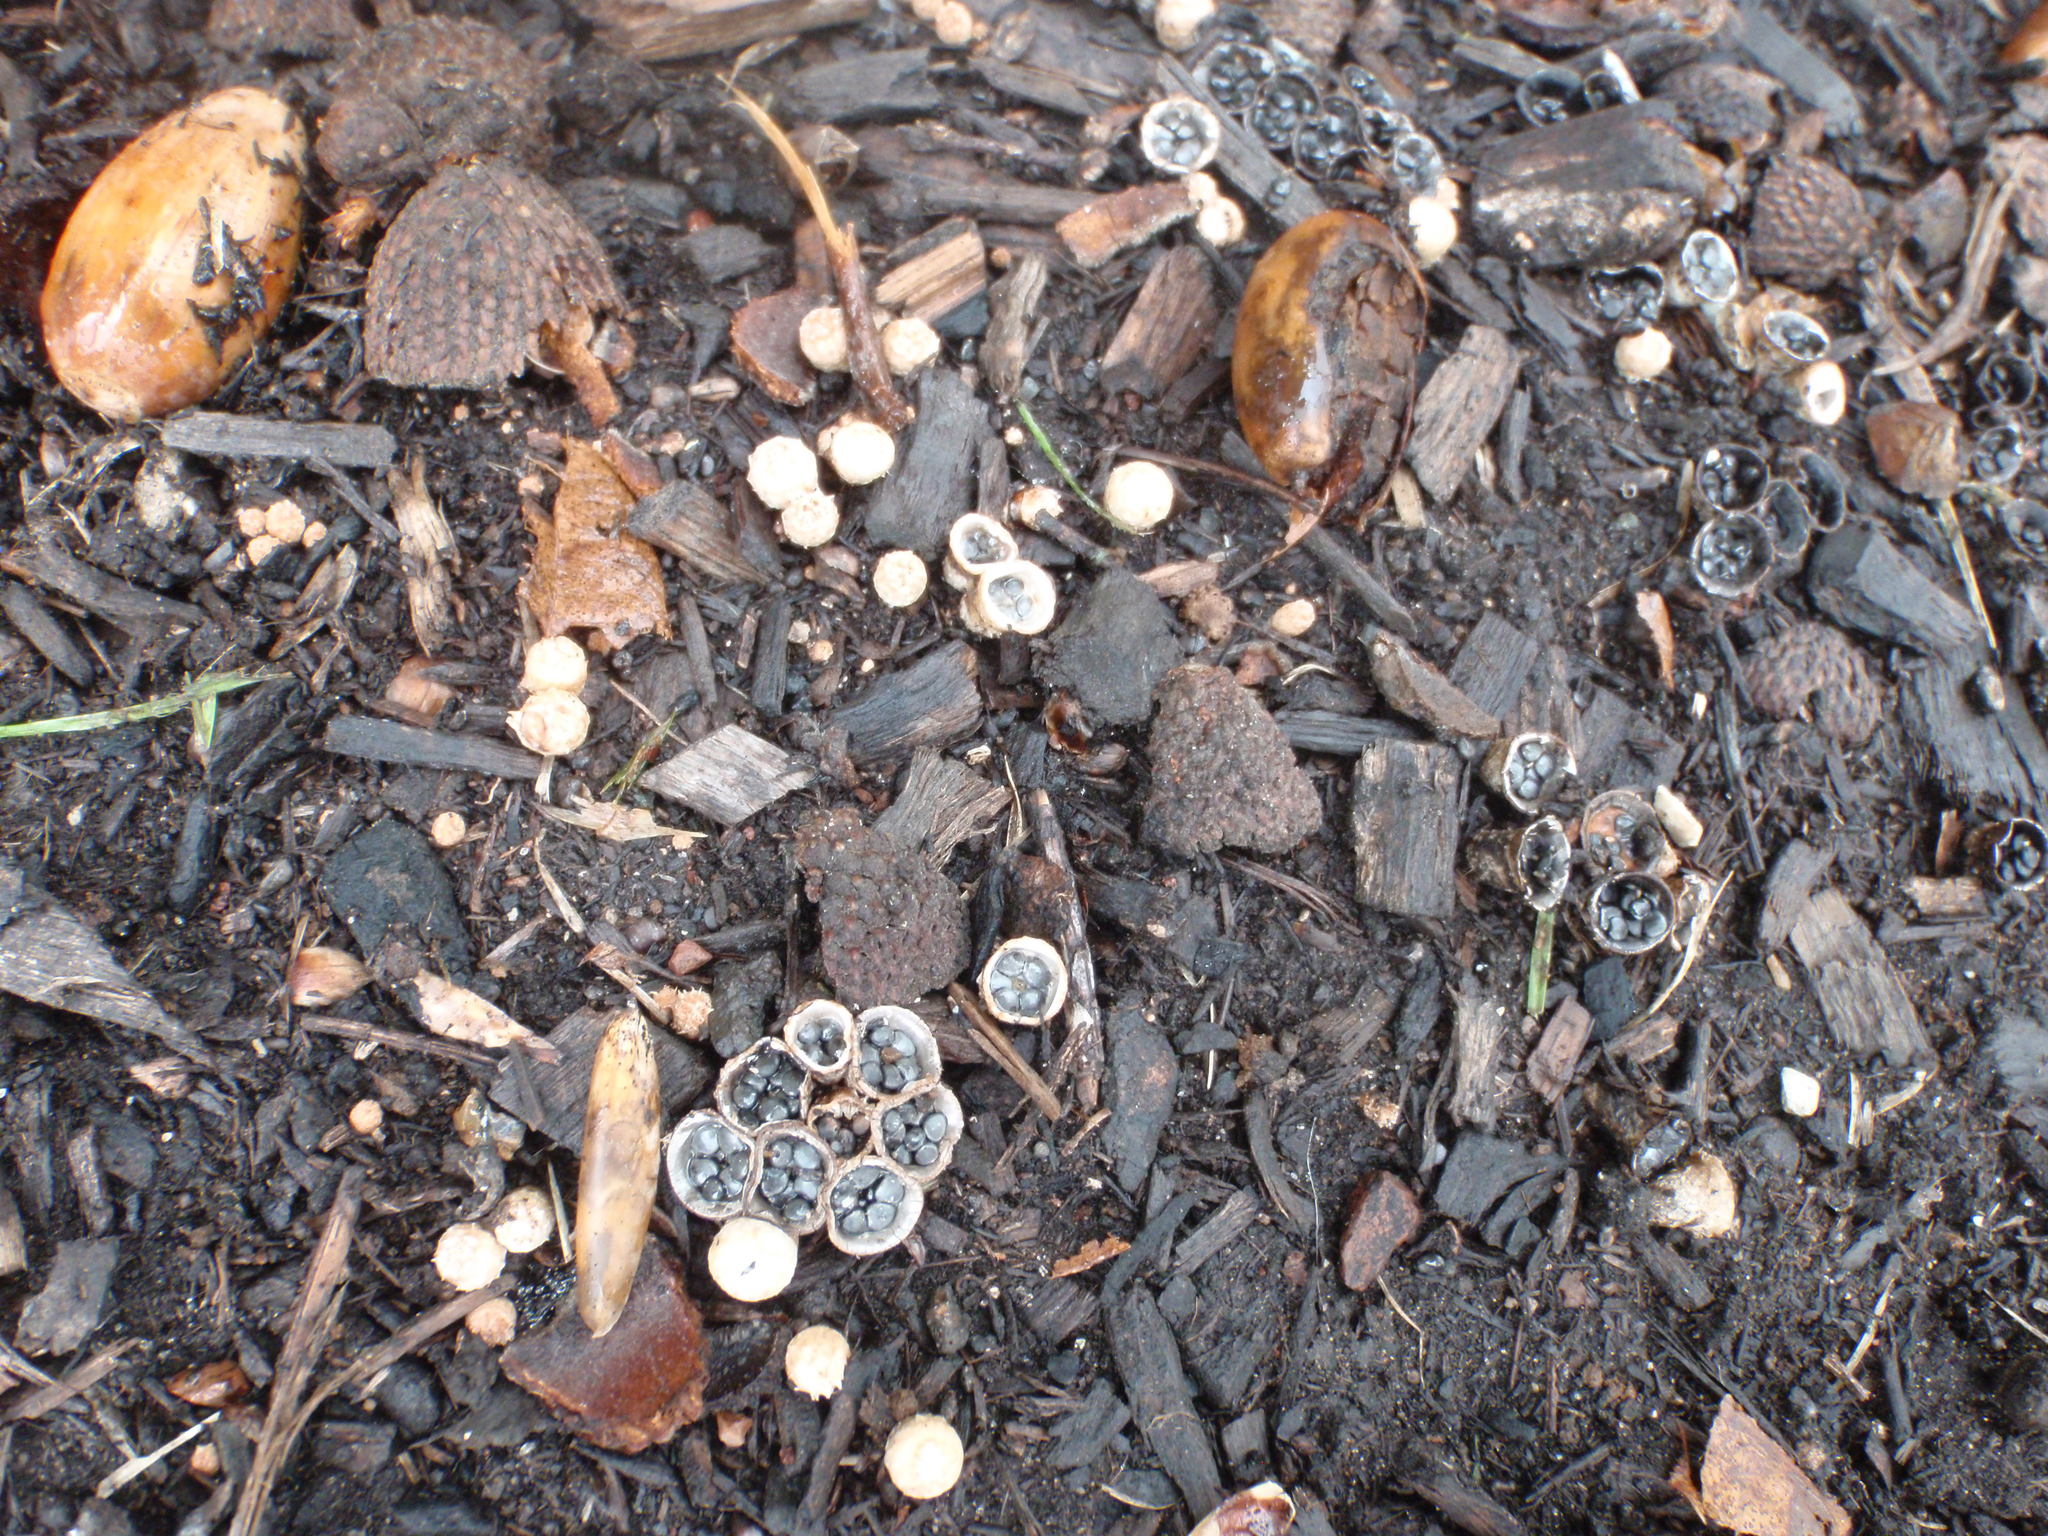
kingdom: Fungi
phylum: Basidiomycota
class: Agaricomycetes
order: Agaricales
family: Agaricaceae
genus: Cyathus
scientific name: Cyathus olla
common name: Field bird's nest
